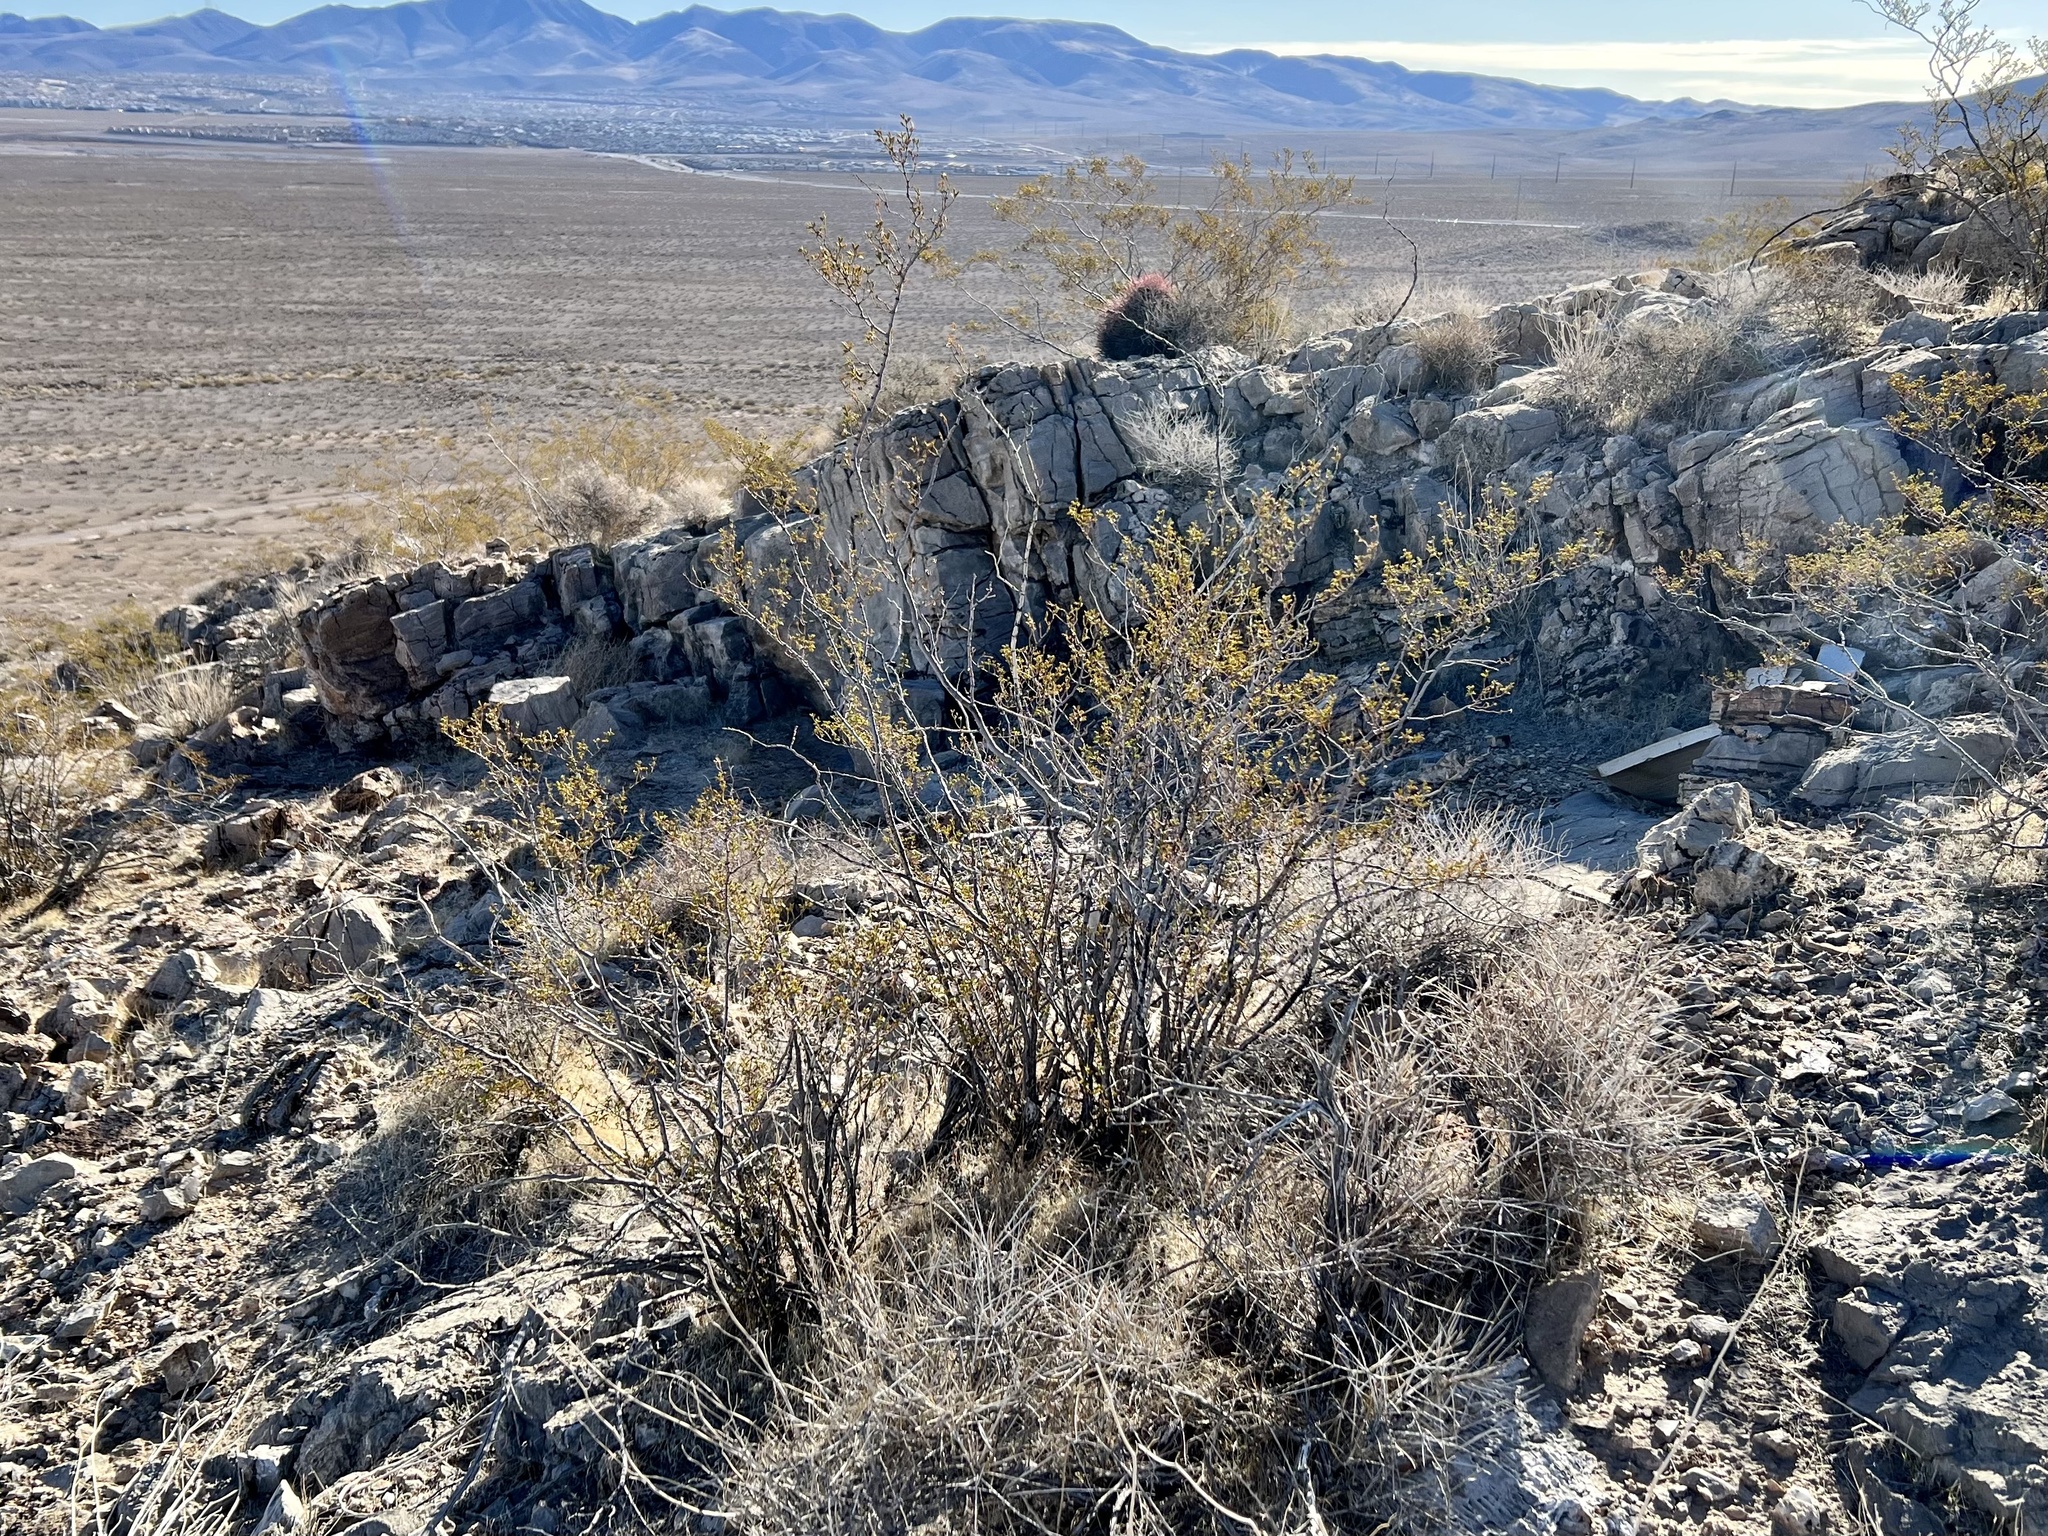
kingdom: Plantae
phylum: Tracheophyta
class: Magnoliopsida
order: Zygophyllales
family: Zygophyllaceae
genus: Larrea
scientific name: Larrea tridentata
